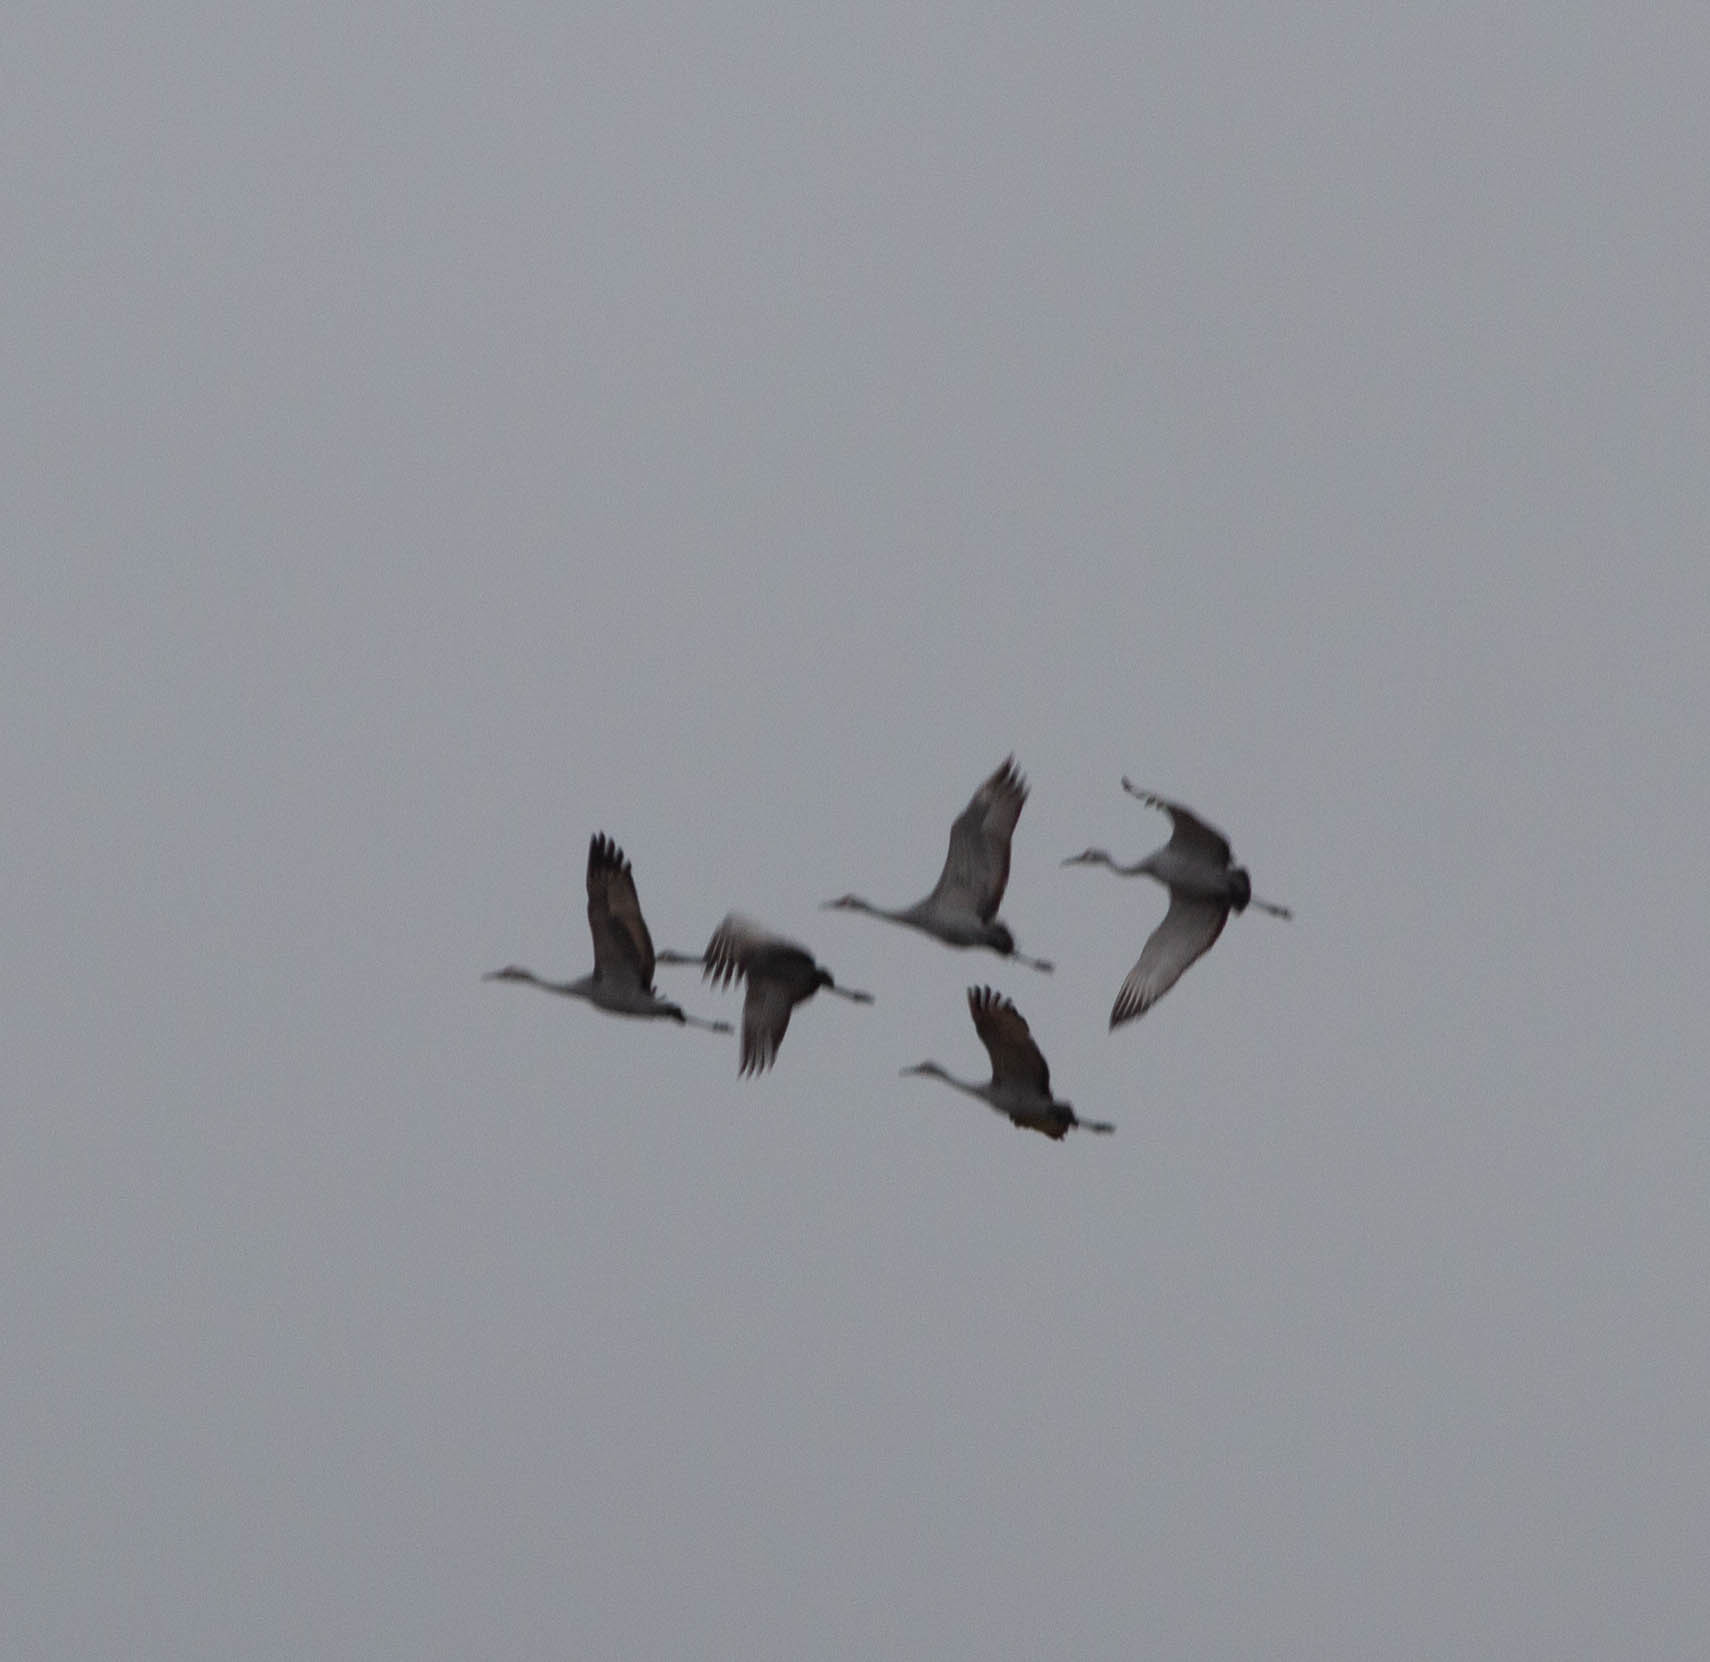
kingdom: Animalia
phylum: Chordata
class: Aves
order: Gruiformes
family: Gruidae
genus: Grus
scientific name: Grus canadensis
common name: Sandhill crane
